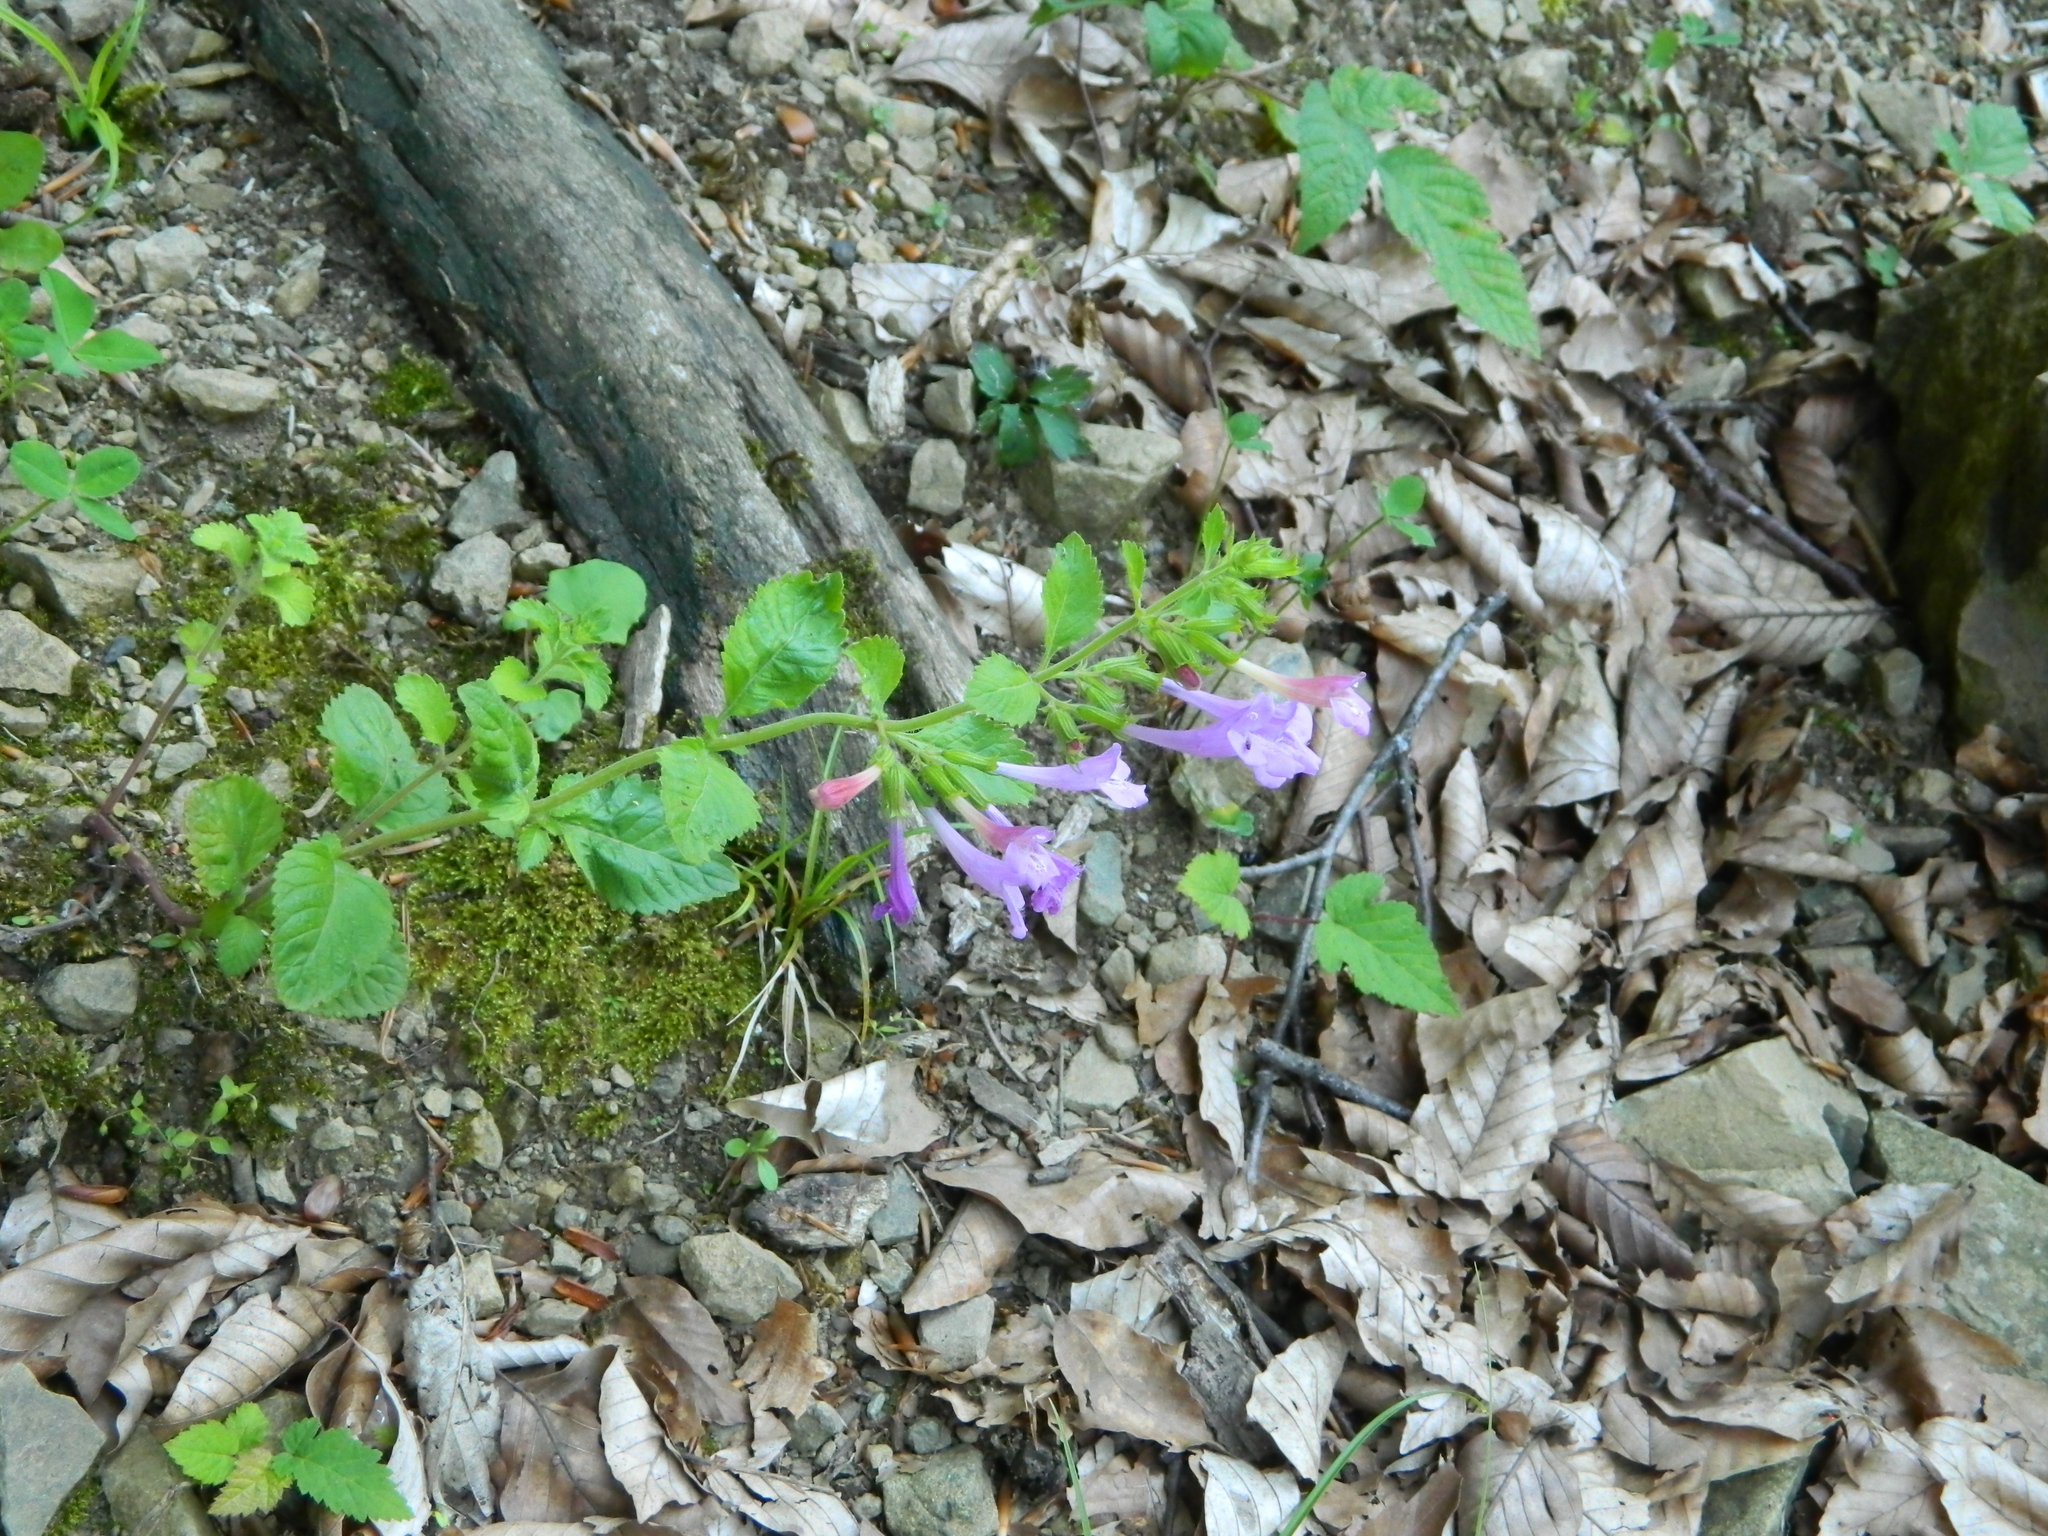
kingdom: Plantae
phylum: Tracheophyta
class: Magnoliopsida
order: Lamiales
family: Lamiaceae
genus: Clinopodium
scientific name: Clinopodium grandiflorum
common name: Greater calamint
